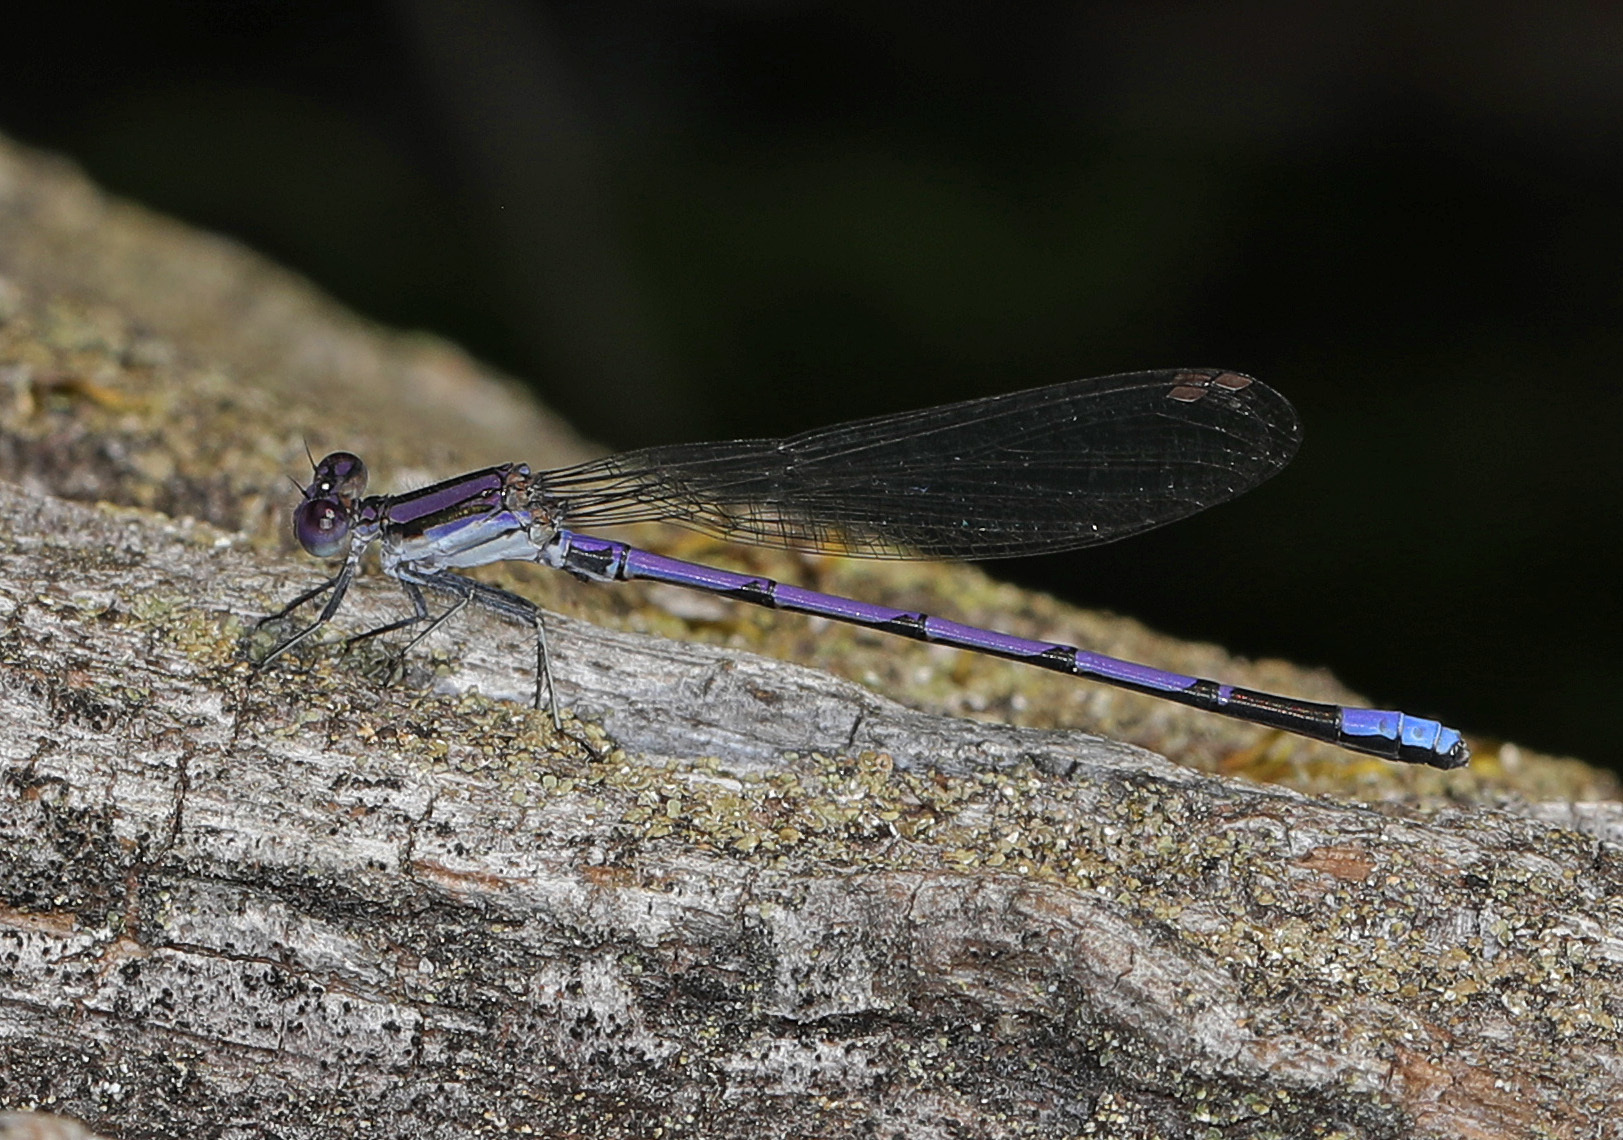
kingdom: Animalia
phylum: Arthropoda
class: Insecta
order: Odonata
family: Coenagrionidae
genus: Argia
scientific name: Argia fumipennis
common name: Variable dancer
